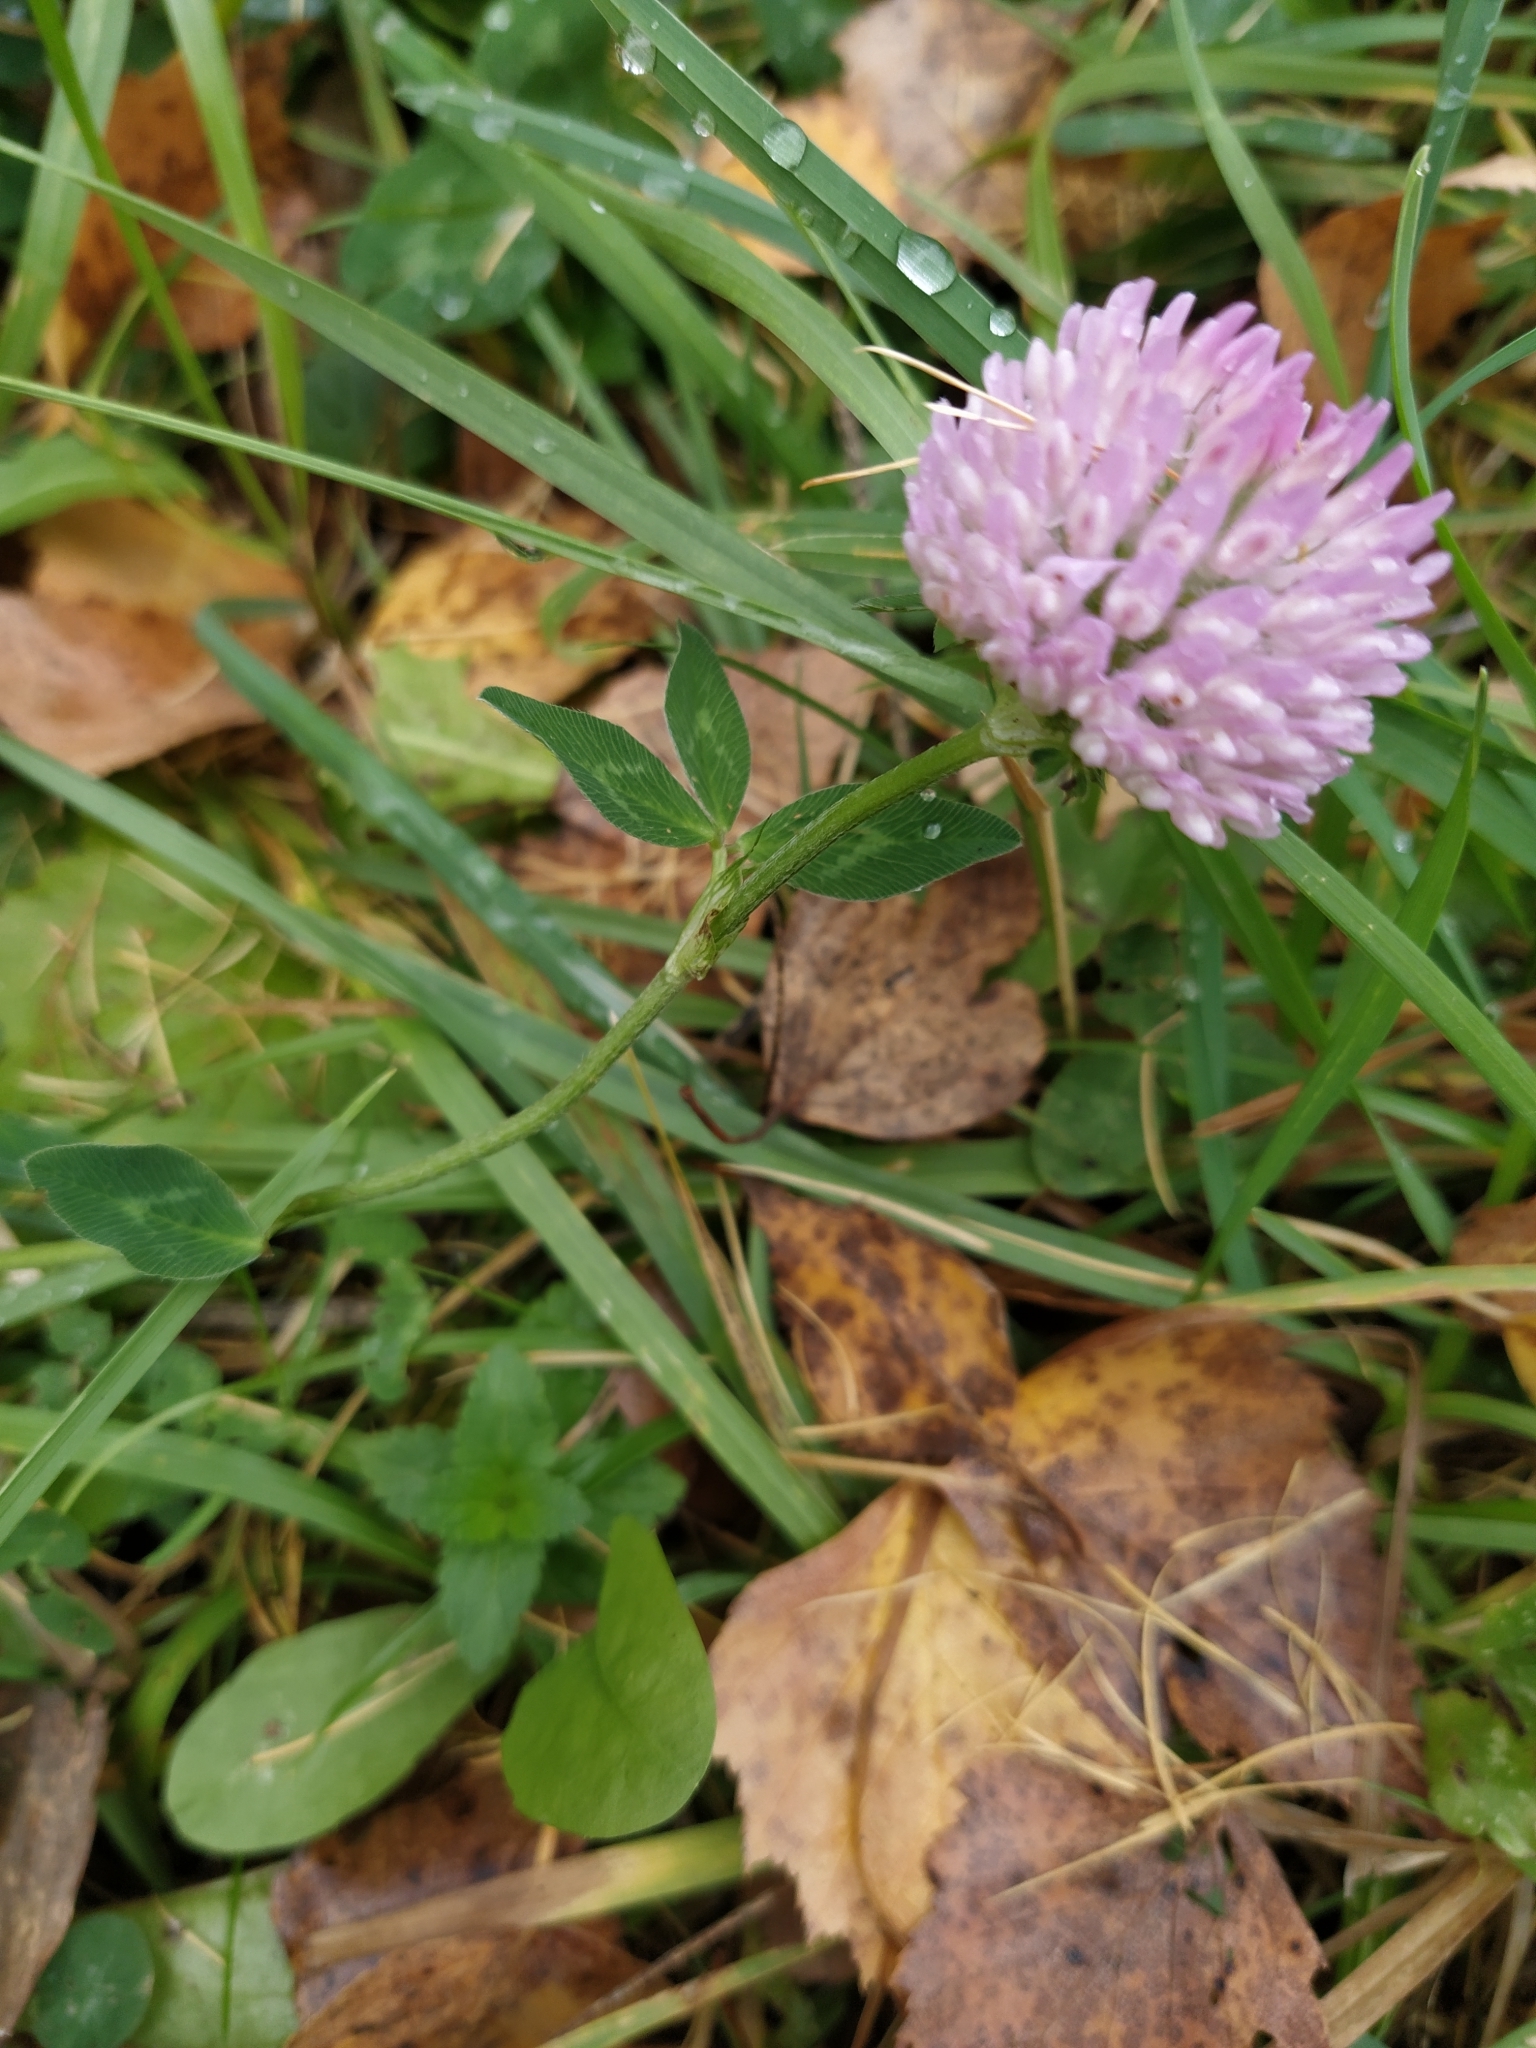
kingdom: Plantae
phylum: Tracheophyta
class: Magnoliopsida
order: Fabales
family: Fabaceae
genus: Trifolium
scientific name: Trifolium pratense
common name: Red clover
